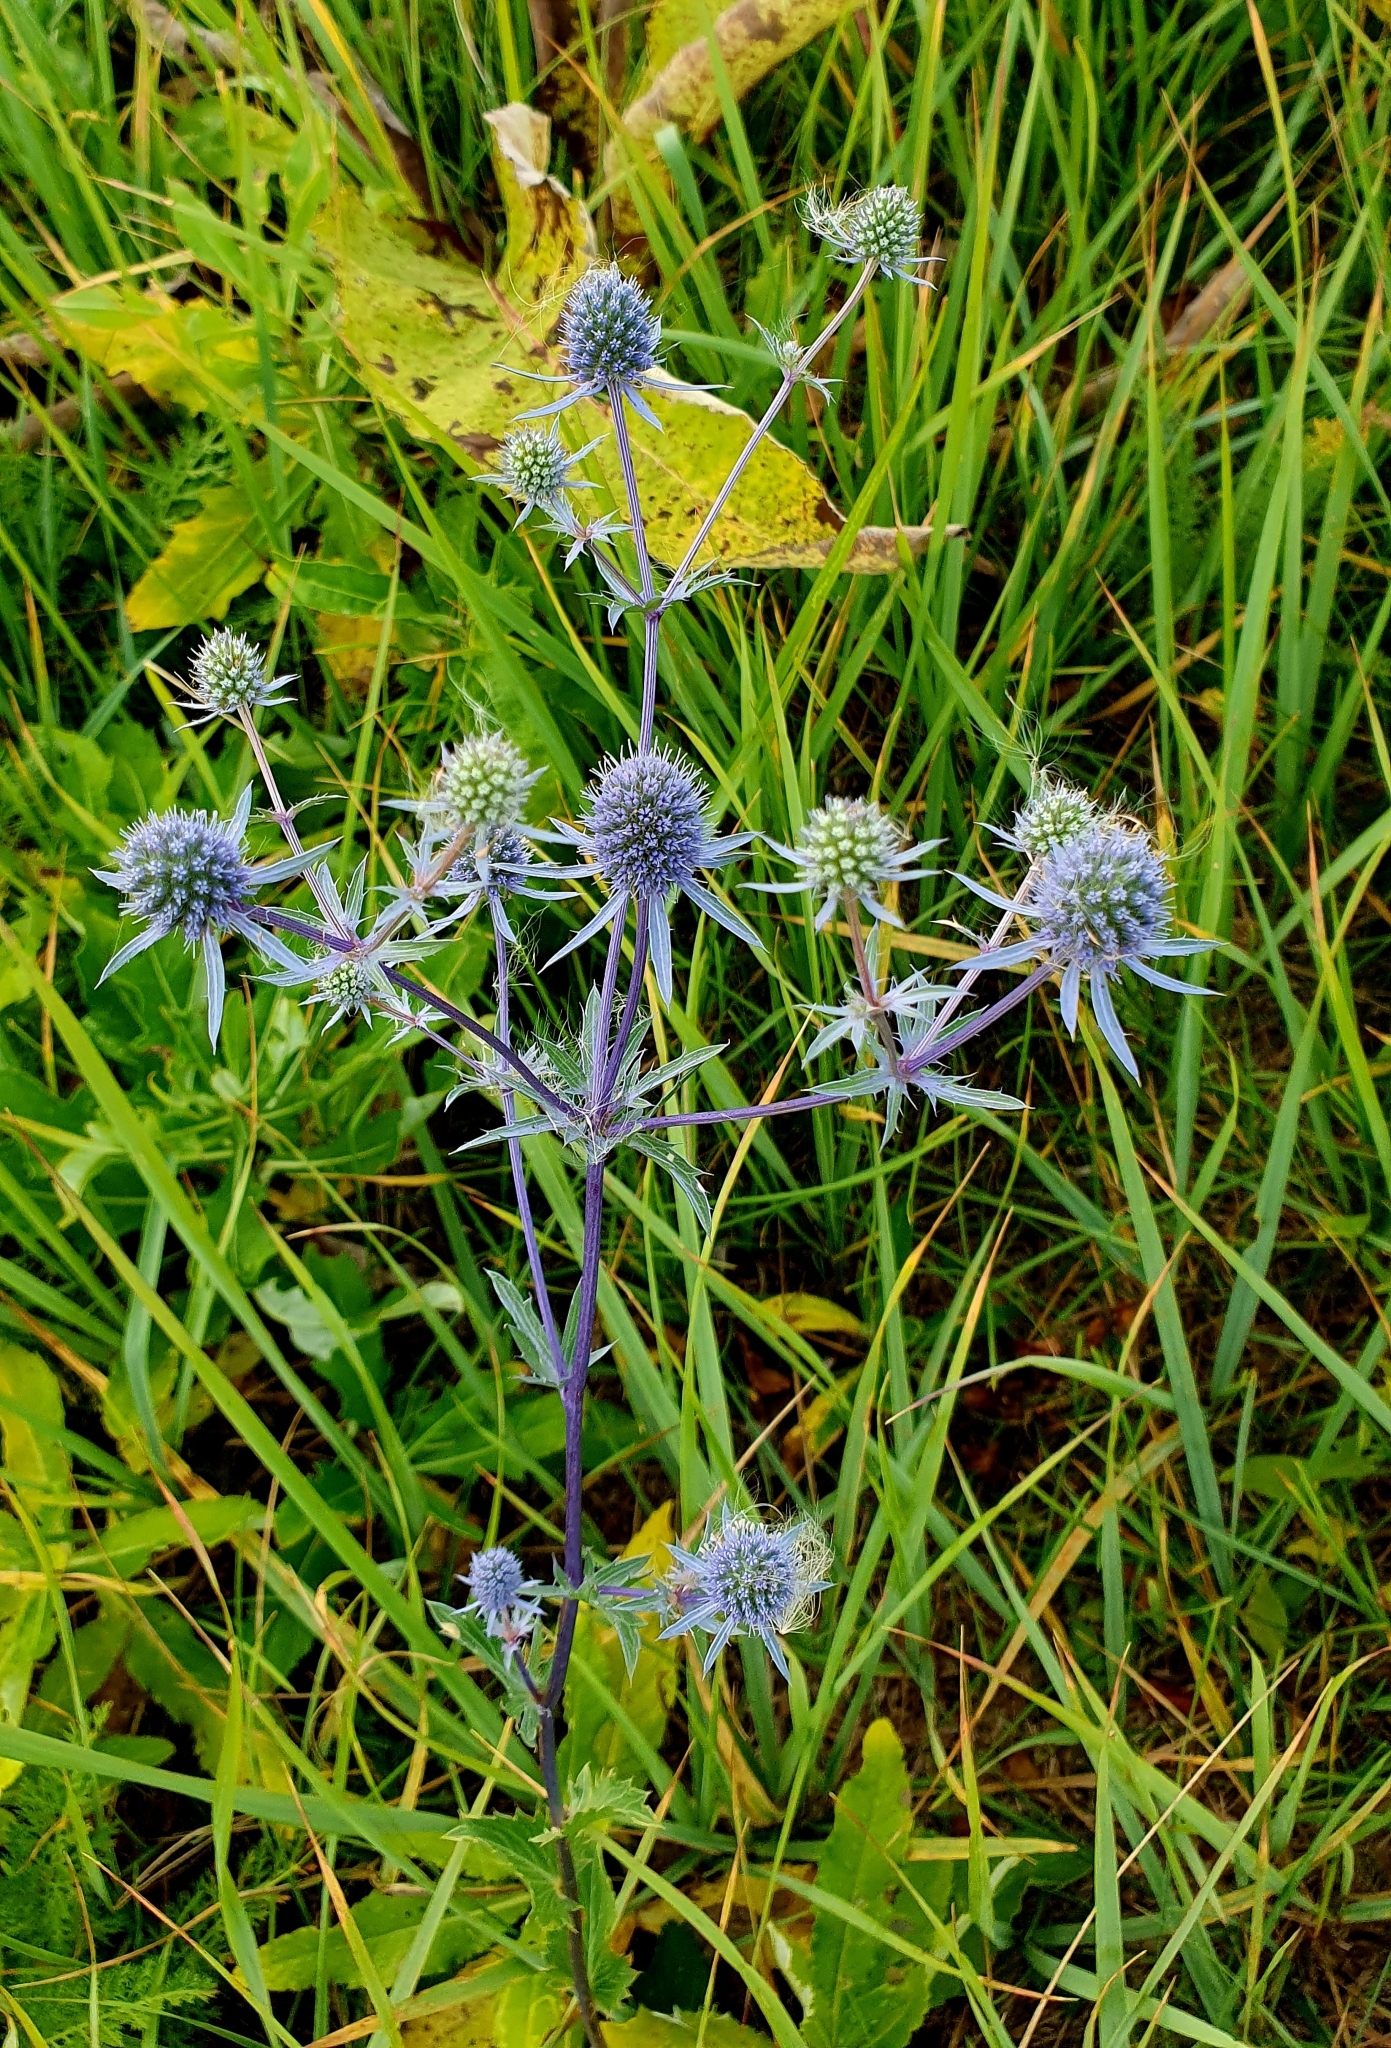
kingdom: Plantae
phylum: Tracheophyta
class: Magnoliopsida
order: Apiales
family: Apiaceae
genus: Eryngium
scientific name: Eryngium planum
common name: Blue eryngo
